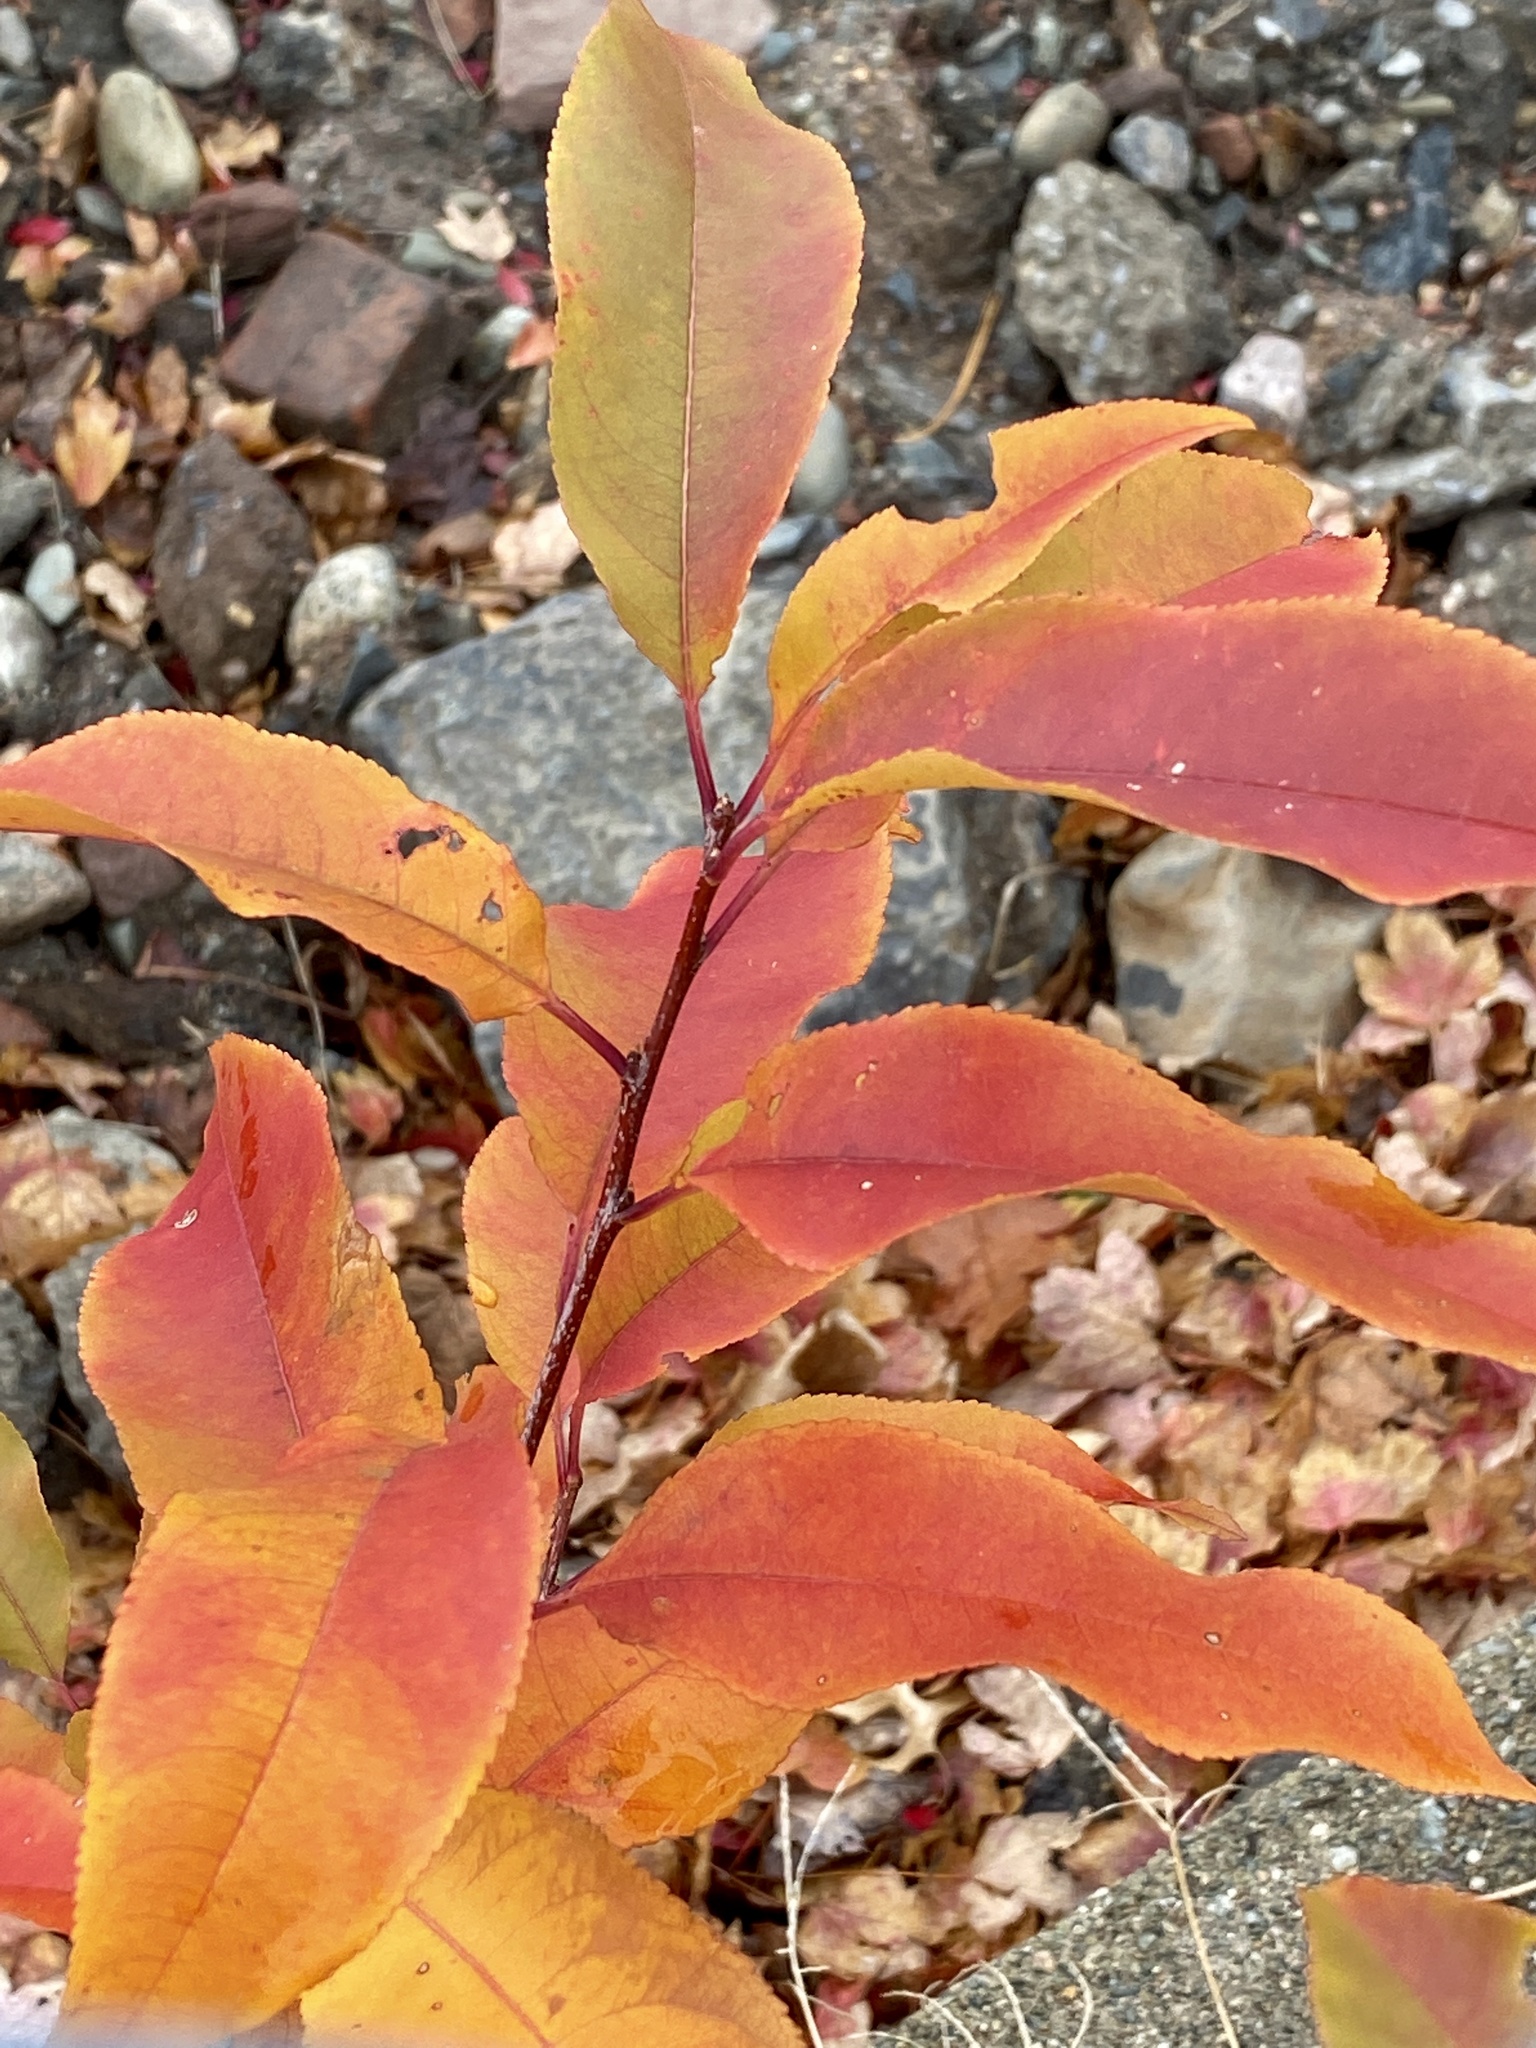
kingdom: Plantae
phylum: Tracheophyta
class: Magnoliopsida
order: Rosales
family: Rosaceae
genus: Prunus
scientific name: Prunus serotina
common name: Black cherry
